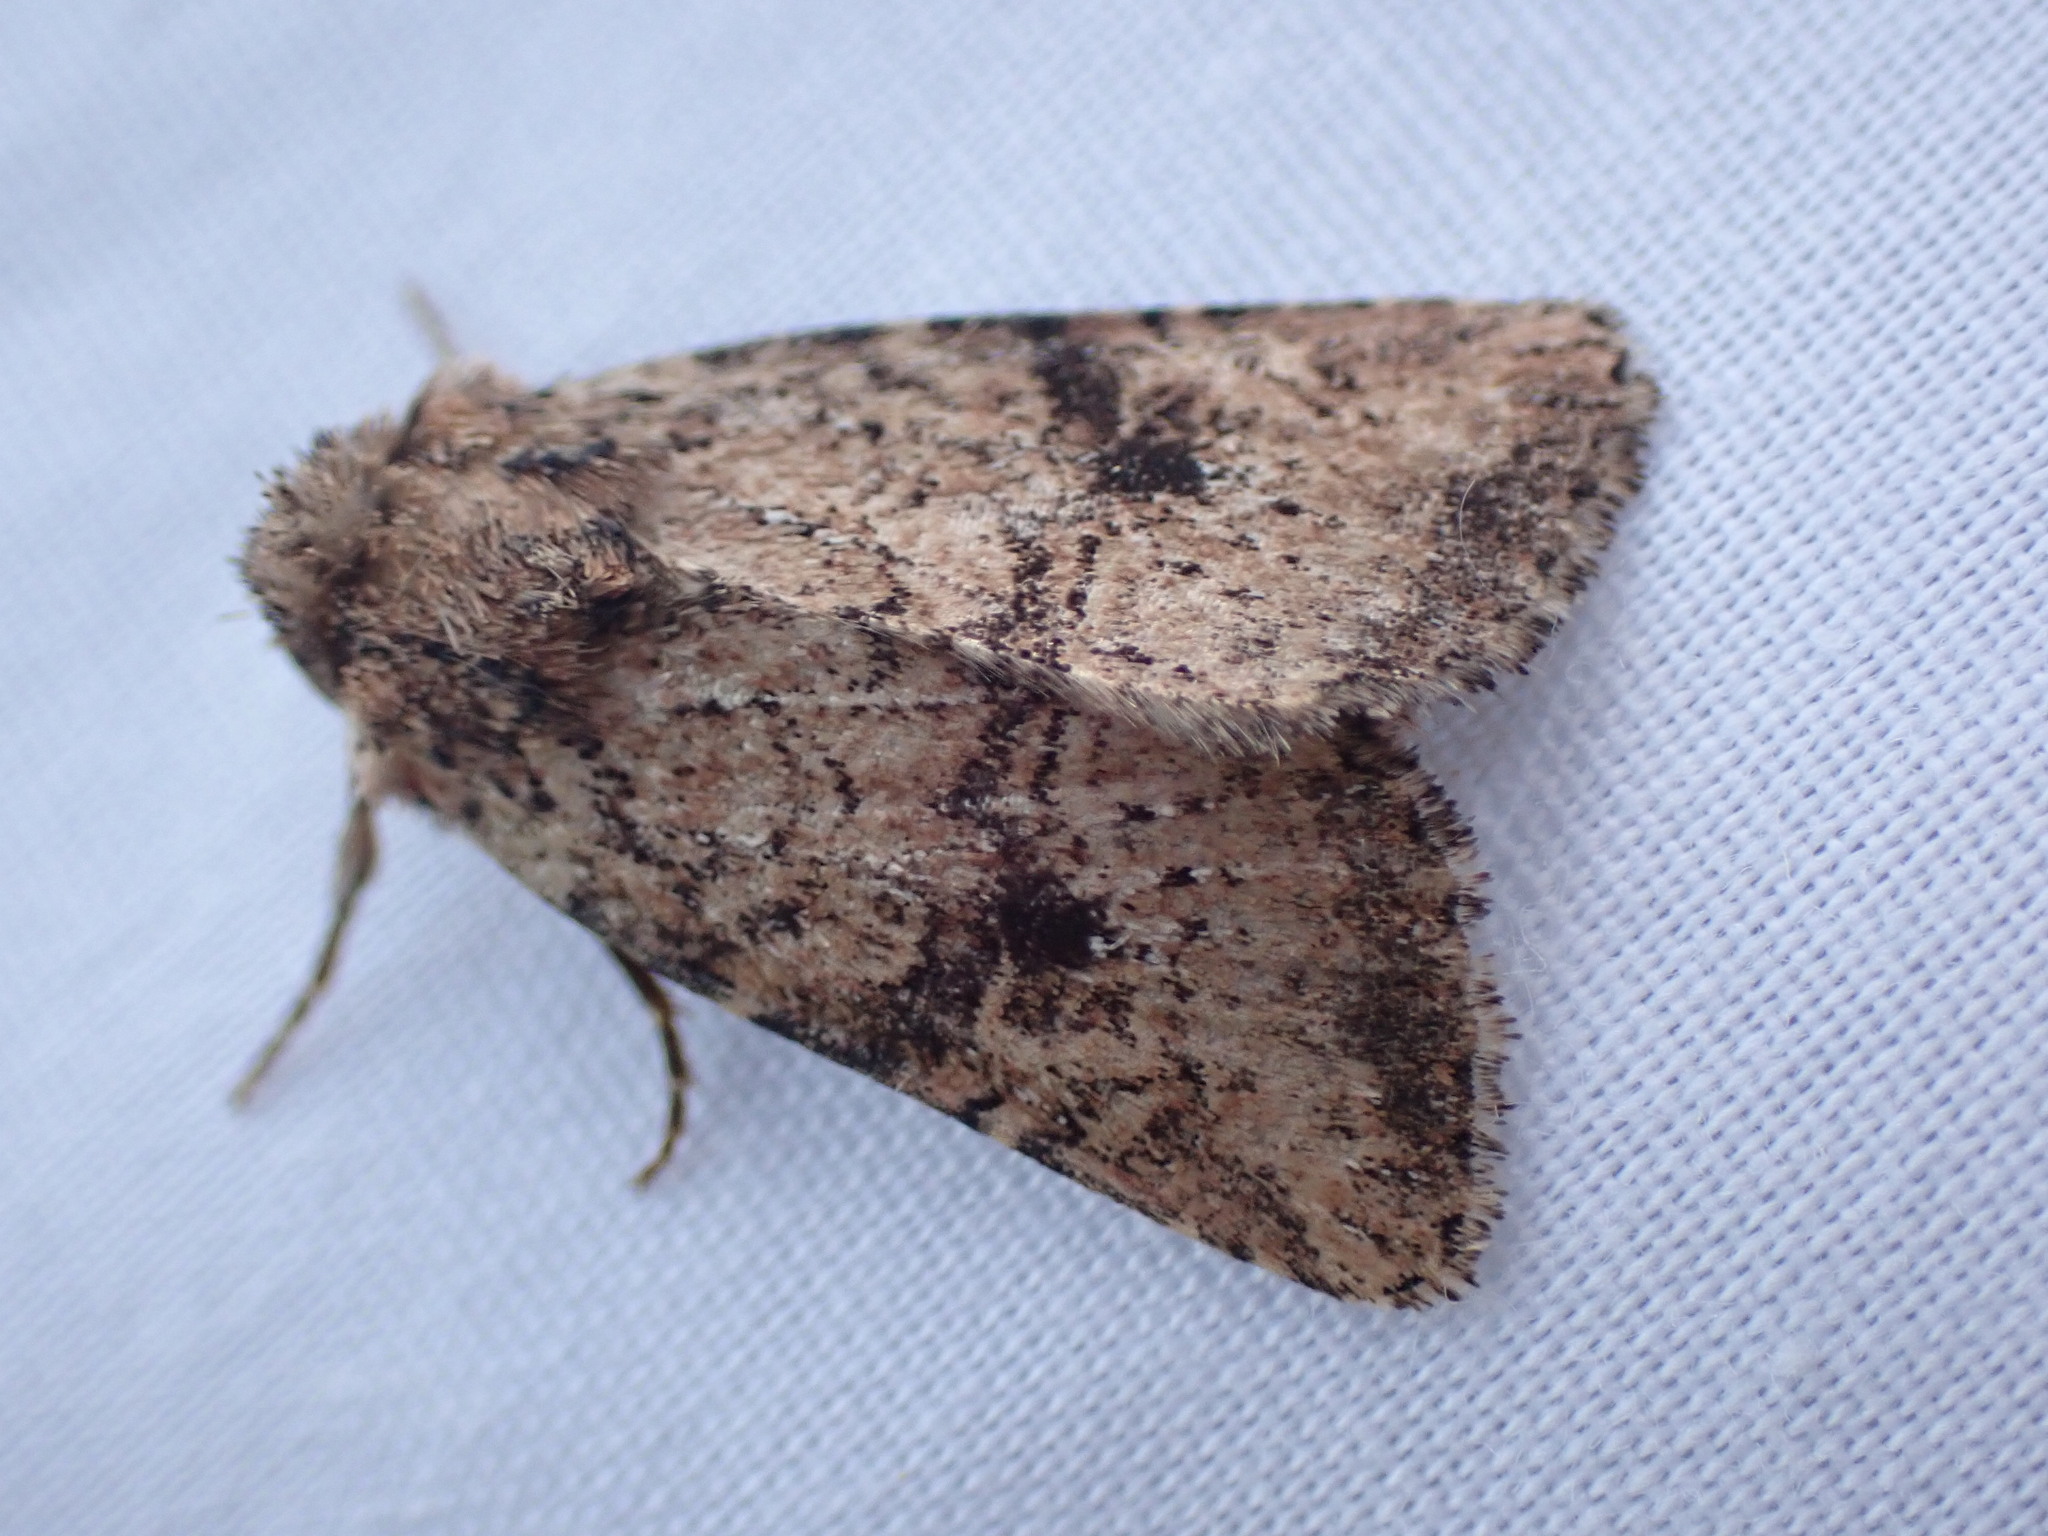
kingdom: Animalia
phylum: Arthropoda
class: Insecta
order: Lepidoptera
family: Noctuidae
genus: Homorthodes
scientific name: Homorthodes hanhami
